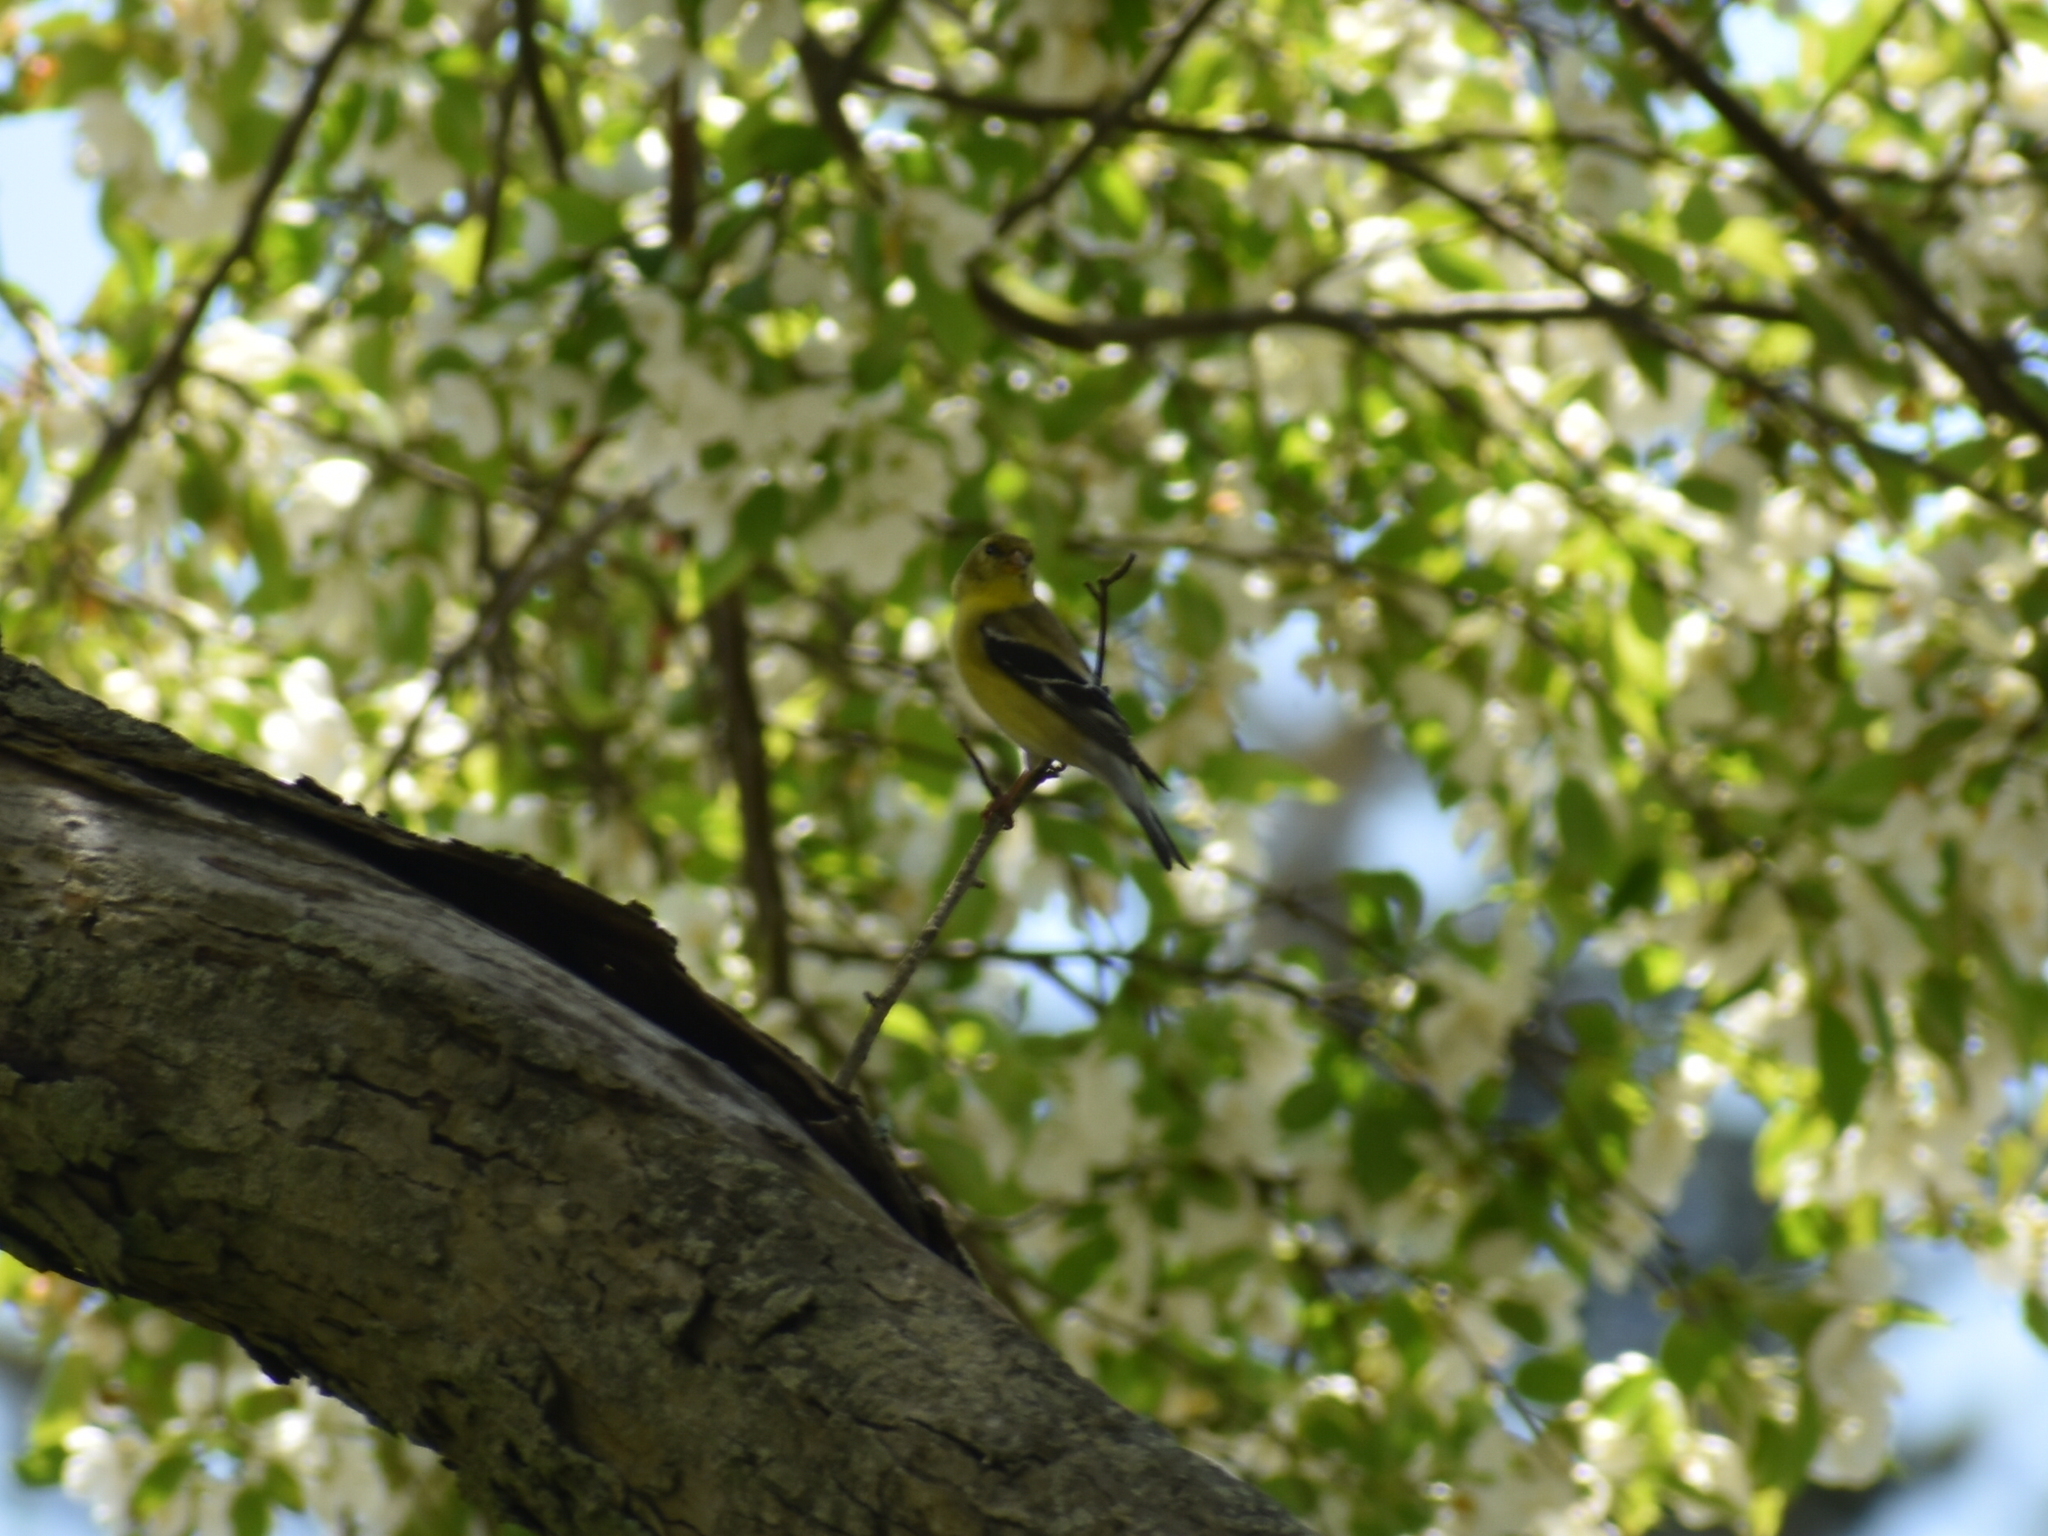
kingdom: Animalia
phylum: Chordata
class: Aves
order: Passeriformes
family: Fringillidae
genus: Spinus
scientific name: Spinus tristis
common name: American goldfinch
